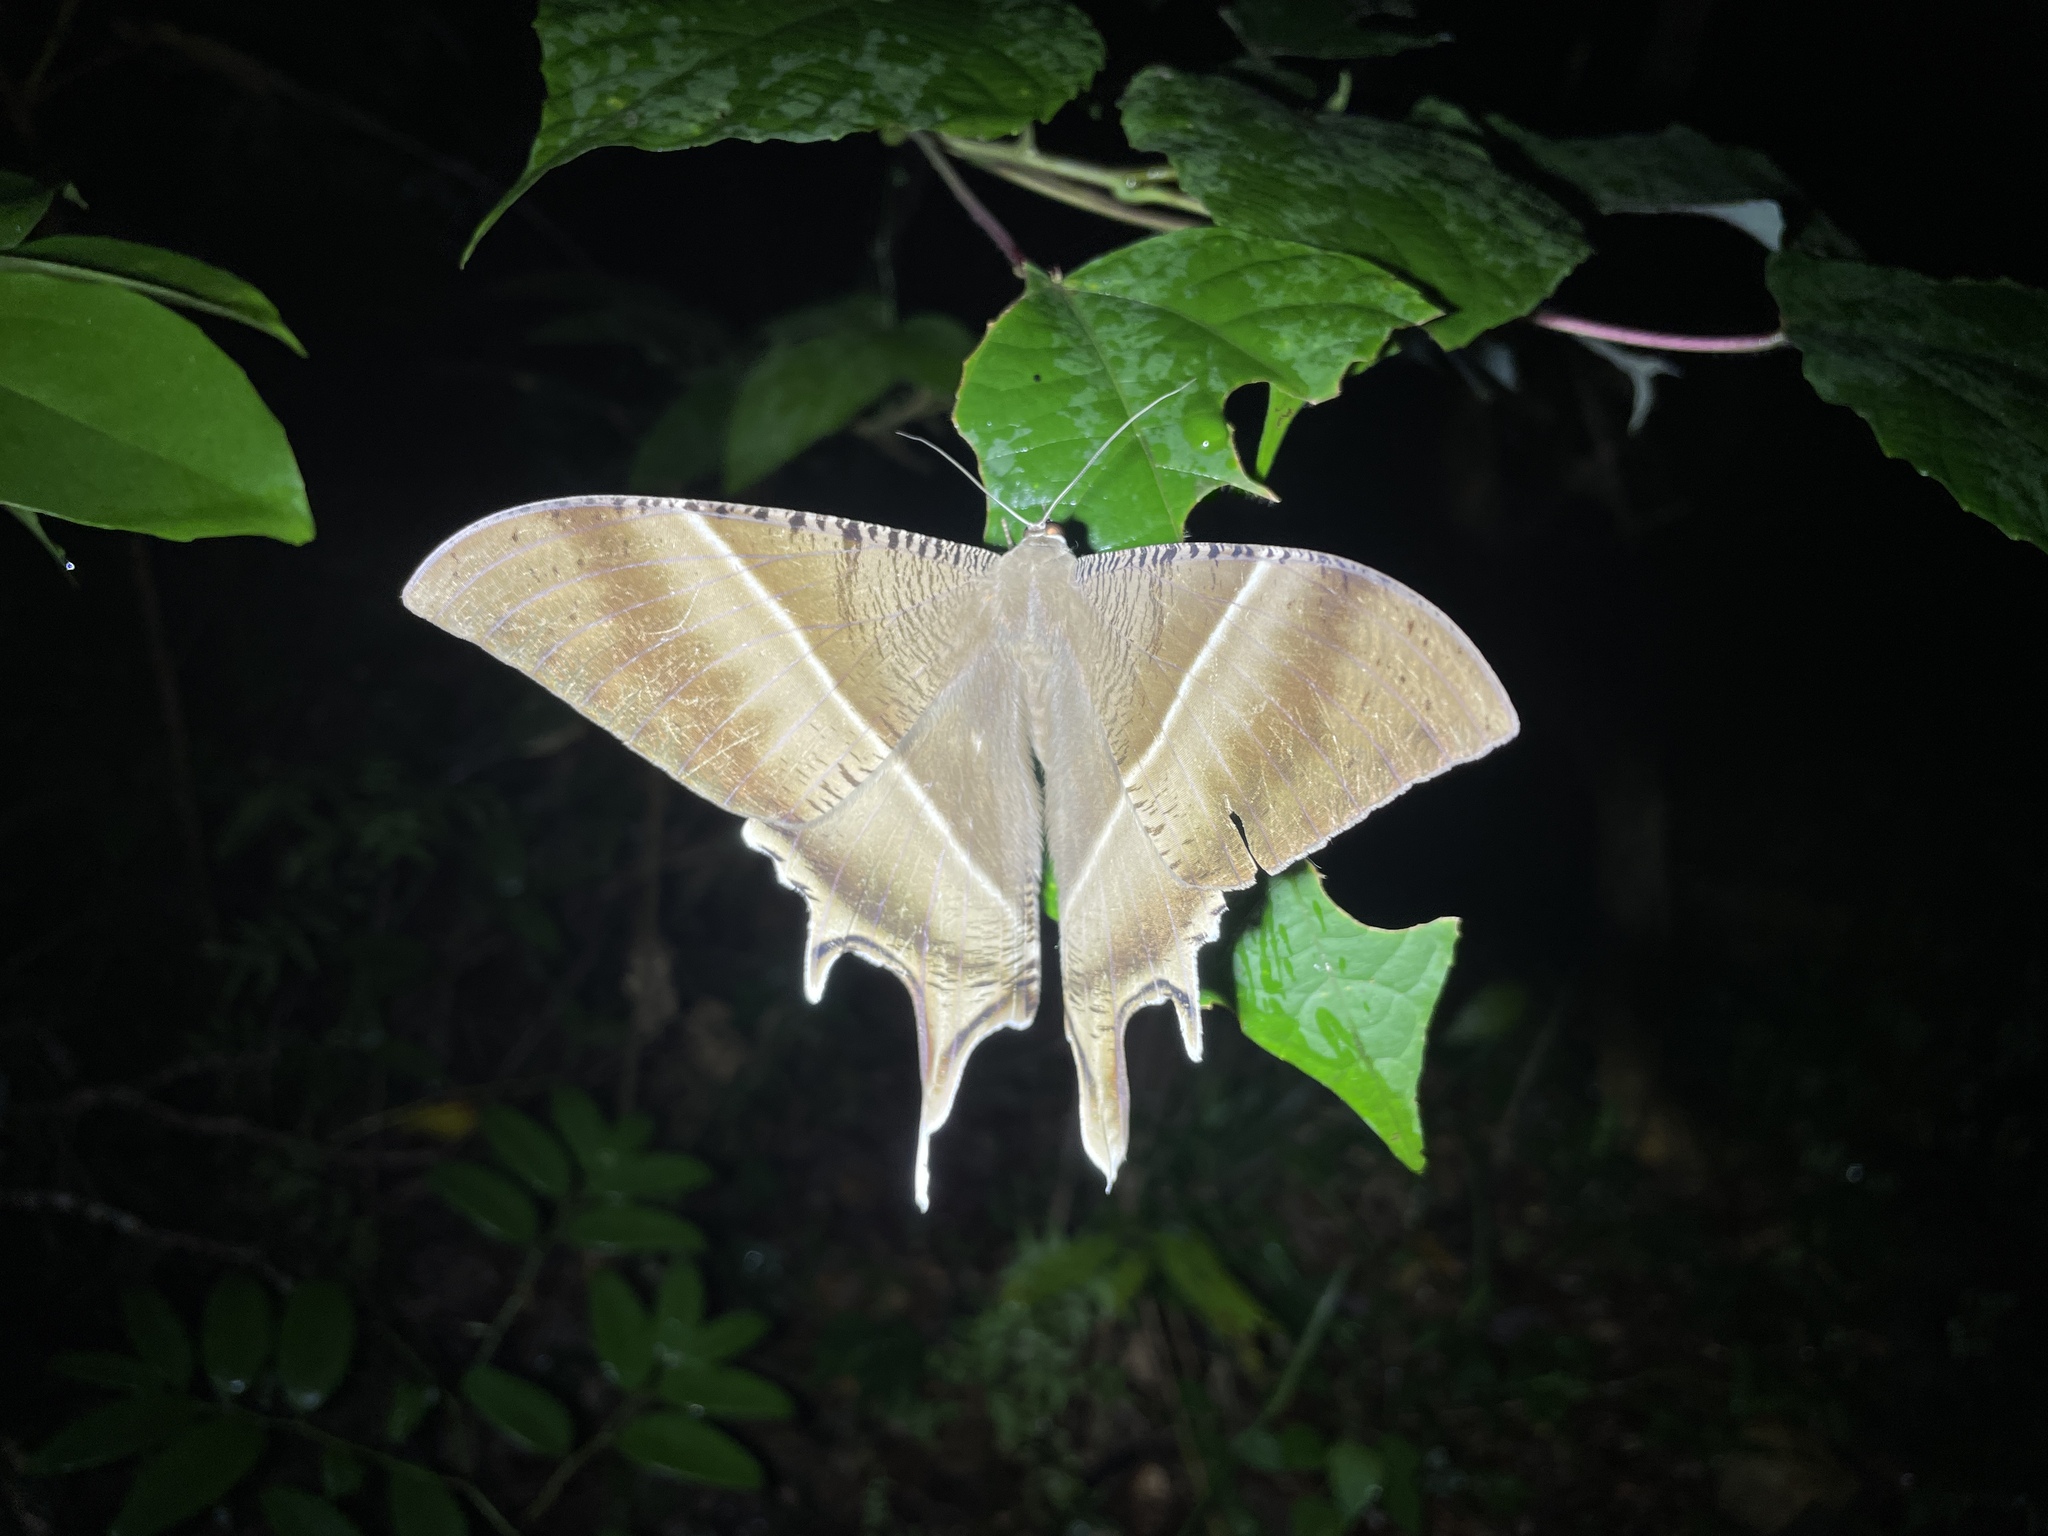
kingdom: Animalia
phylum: Arthropoda
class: Insecta
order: Lepidoptera
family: Uraniidae
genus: Lyssa
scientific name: Lyssa zampa
